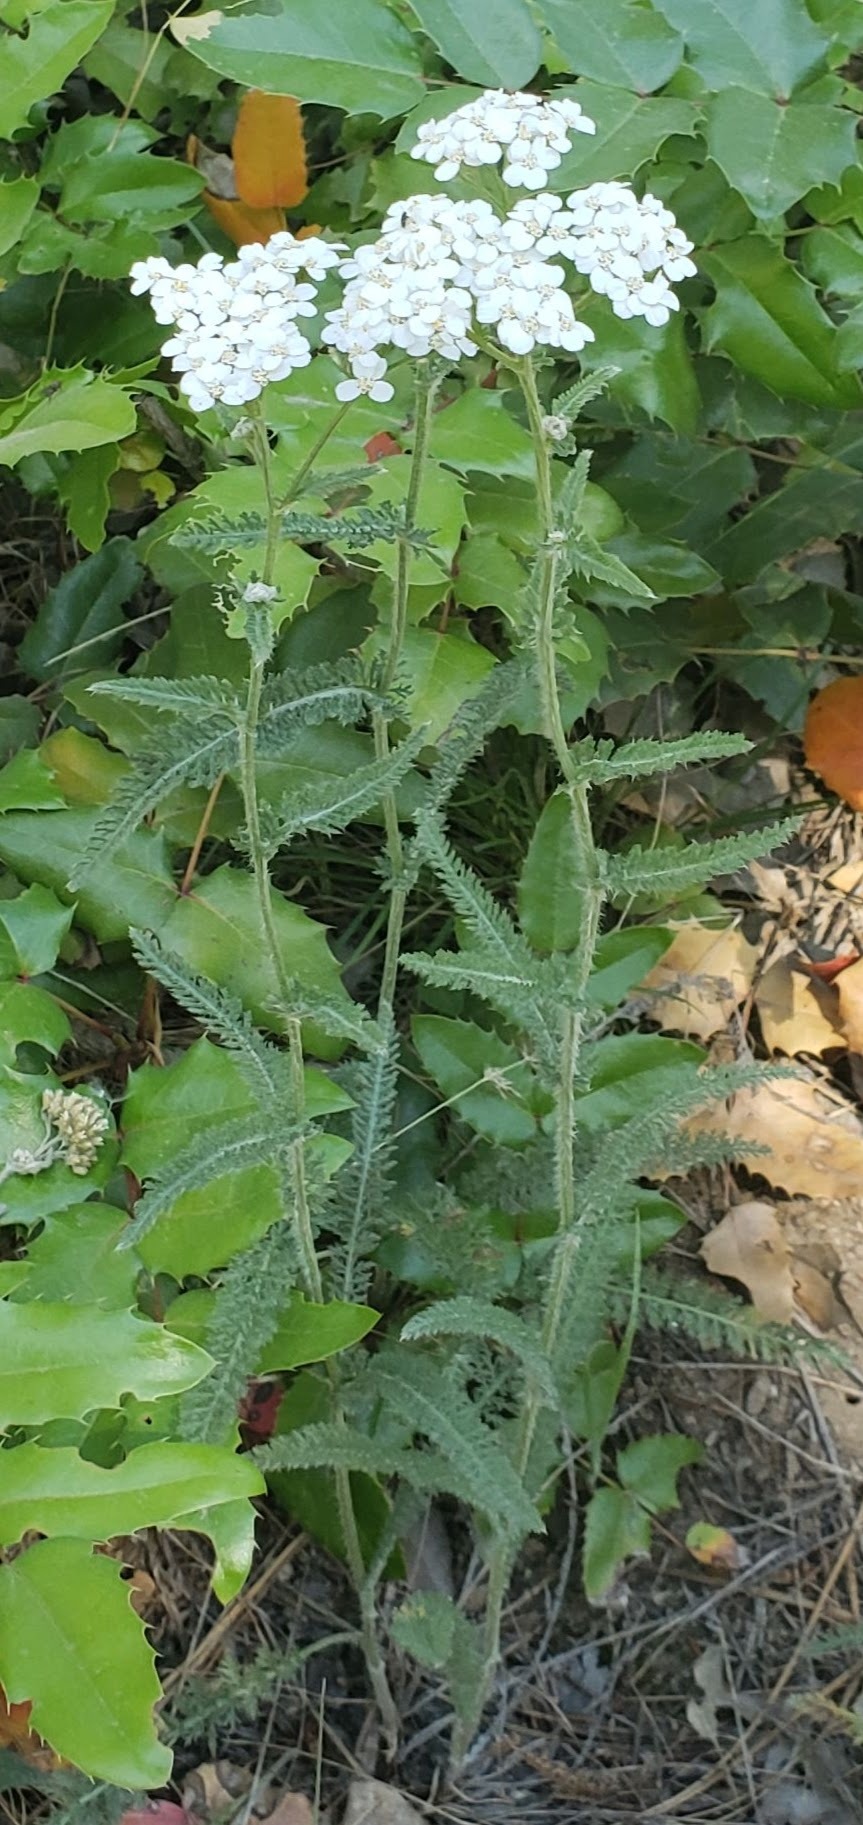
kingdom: Plantae
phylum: Tracheophyta
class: Magnoliopsida
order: Asterales
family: Asteraceae
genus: Achillea
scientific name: Achillea millefolium
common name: Yarrow
